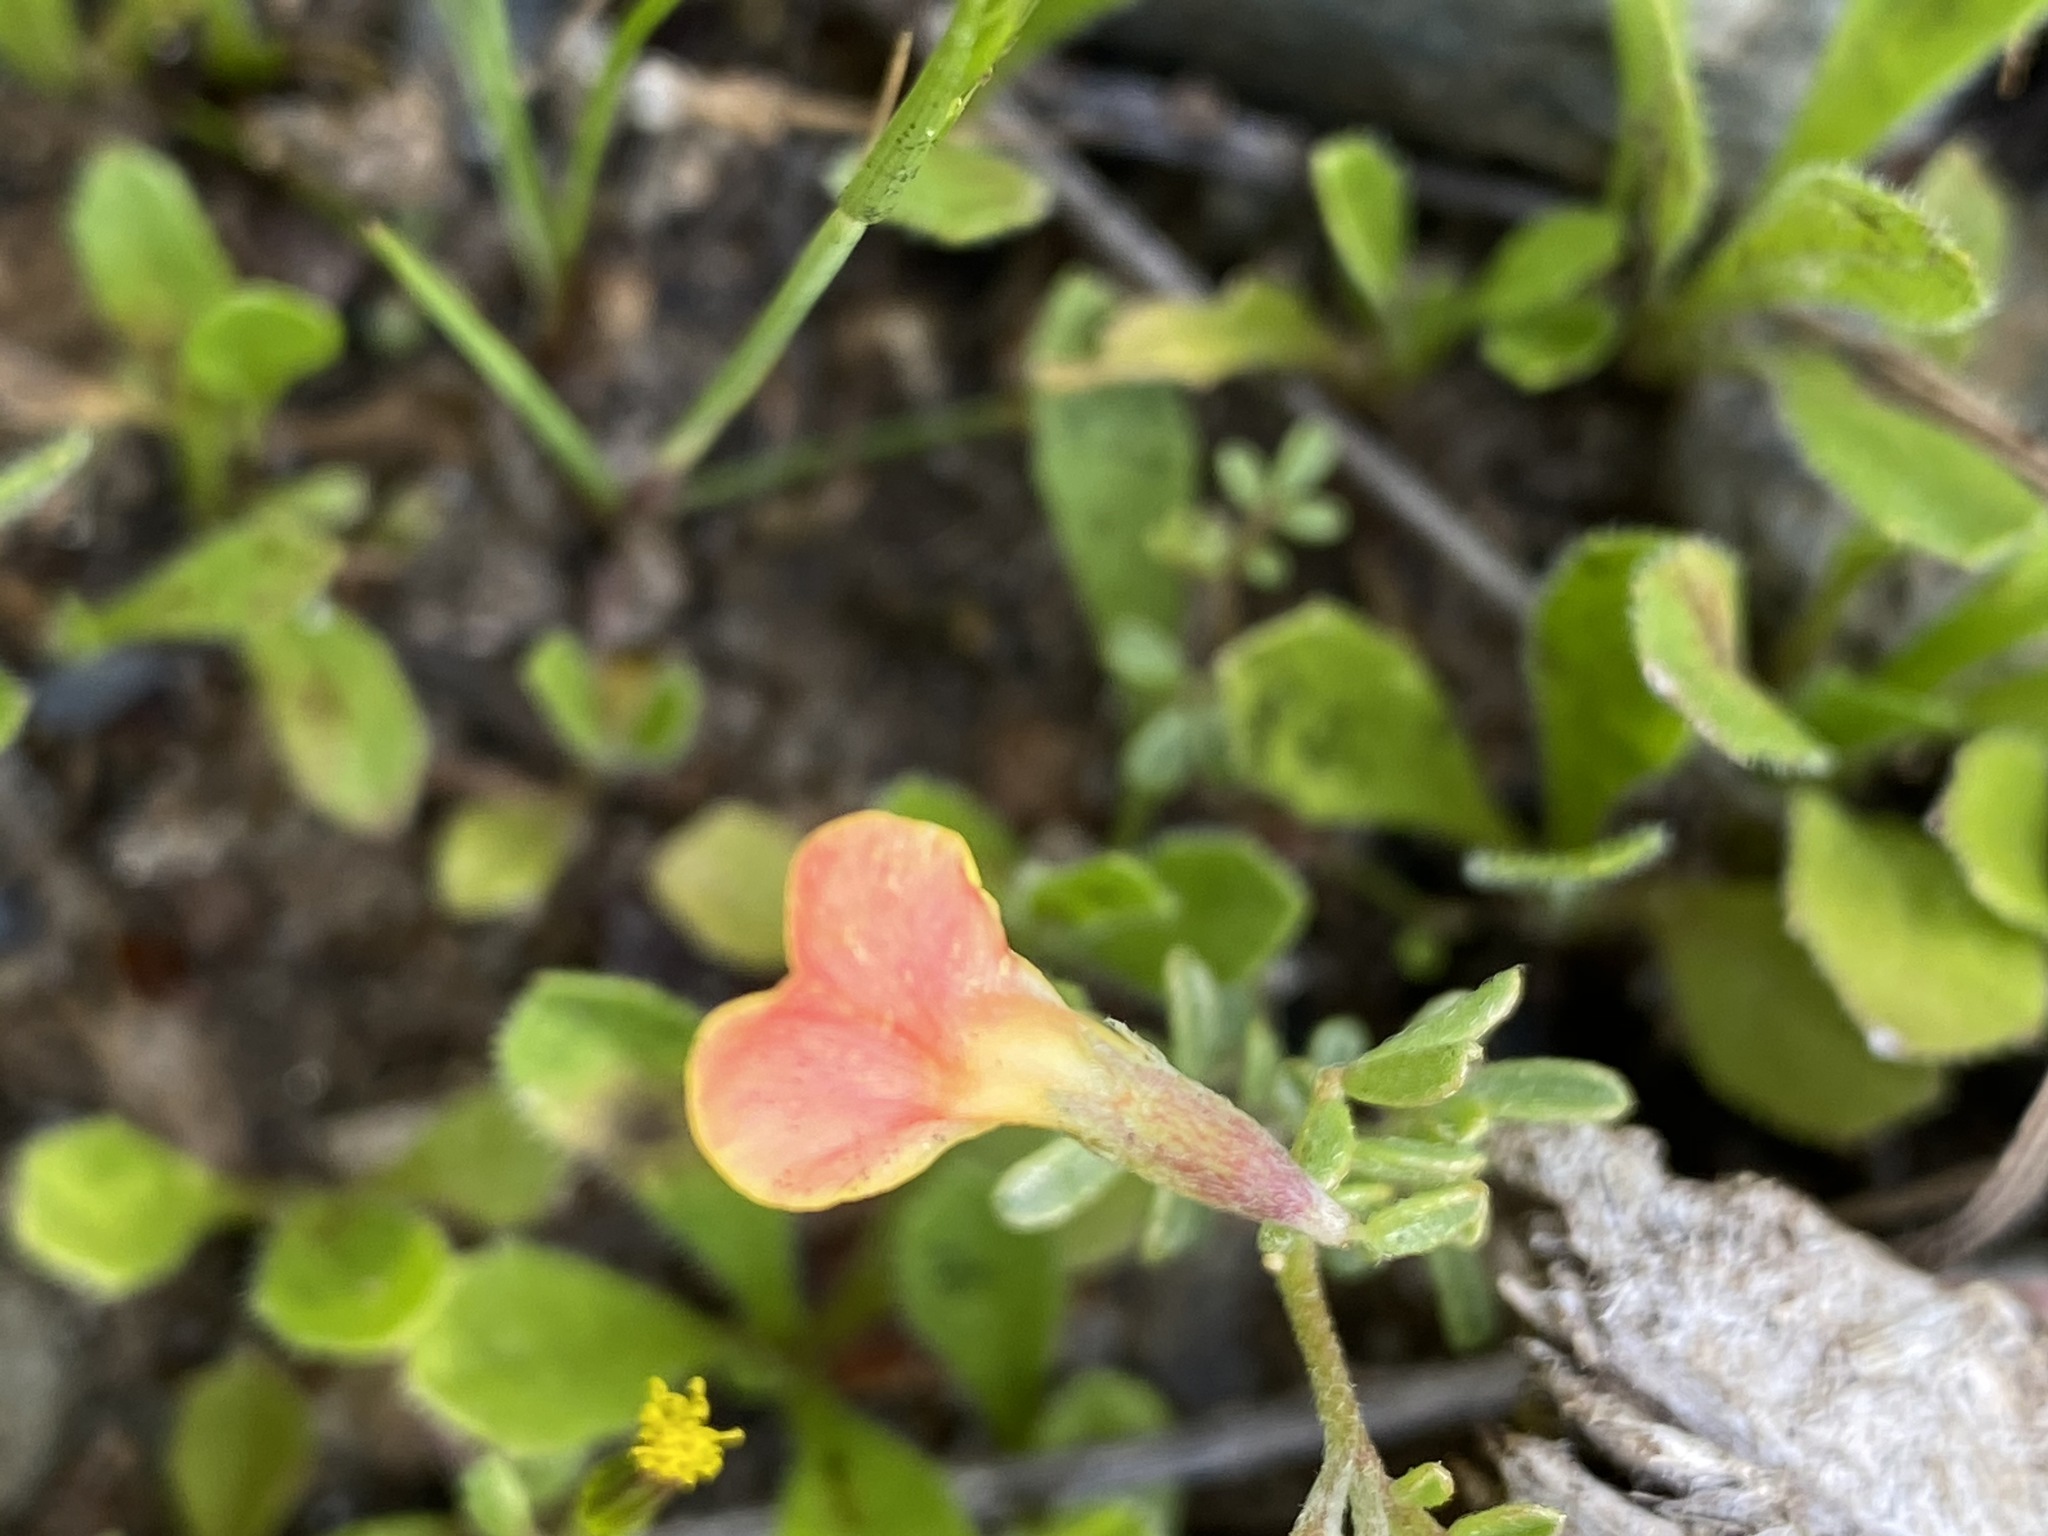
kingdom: Plantae
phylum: Tracheophyta
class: Magnoliopsida
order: Fabales
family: Fabaceae
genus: Acmispon
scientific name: Acmispon strigosus
